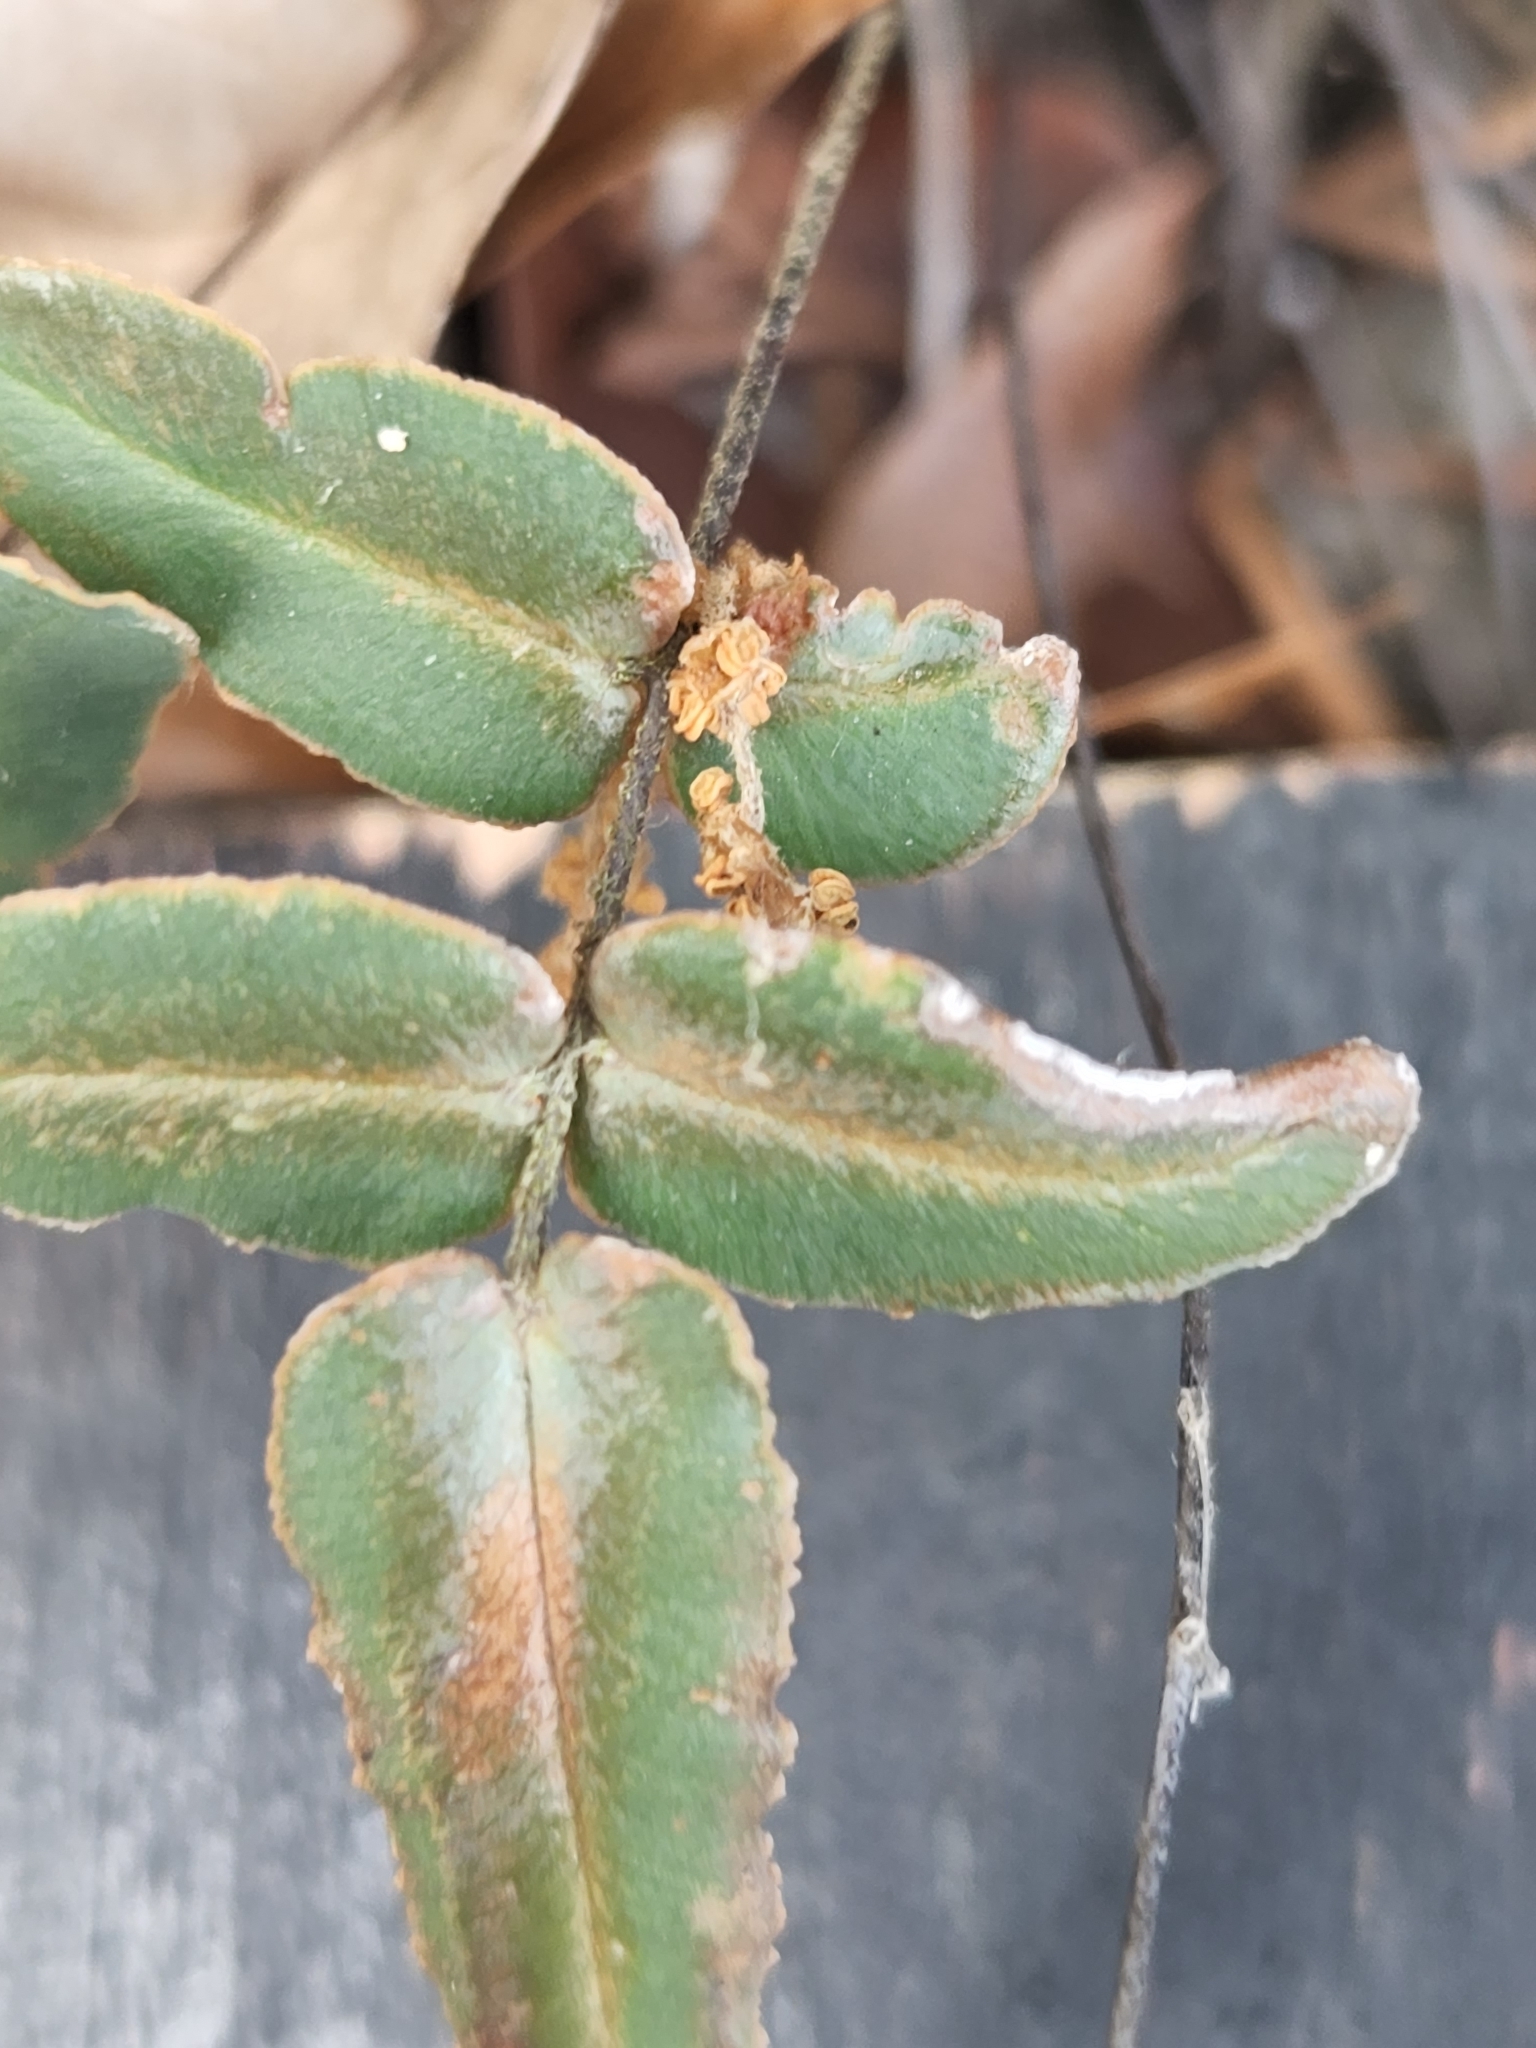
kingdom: Plantae
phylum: Tracheophyta
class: Polypodiopsida
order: Polypodiales
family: Pteridaceae
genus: Pellaea
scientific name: Pellaea atropurpurea
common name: Hairy cliffbrake
